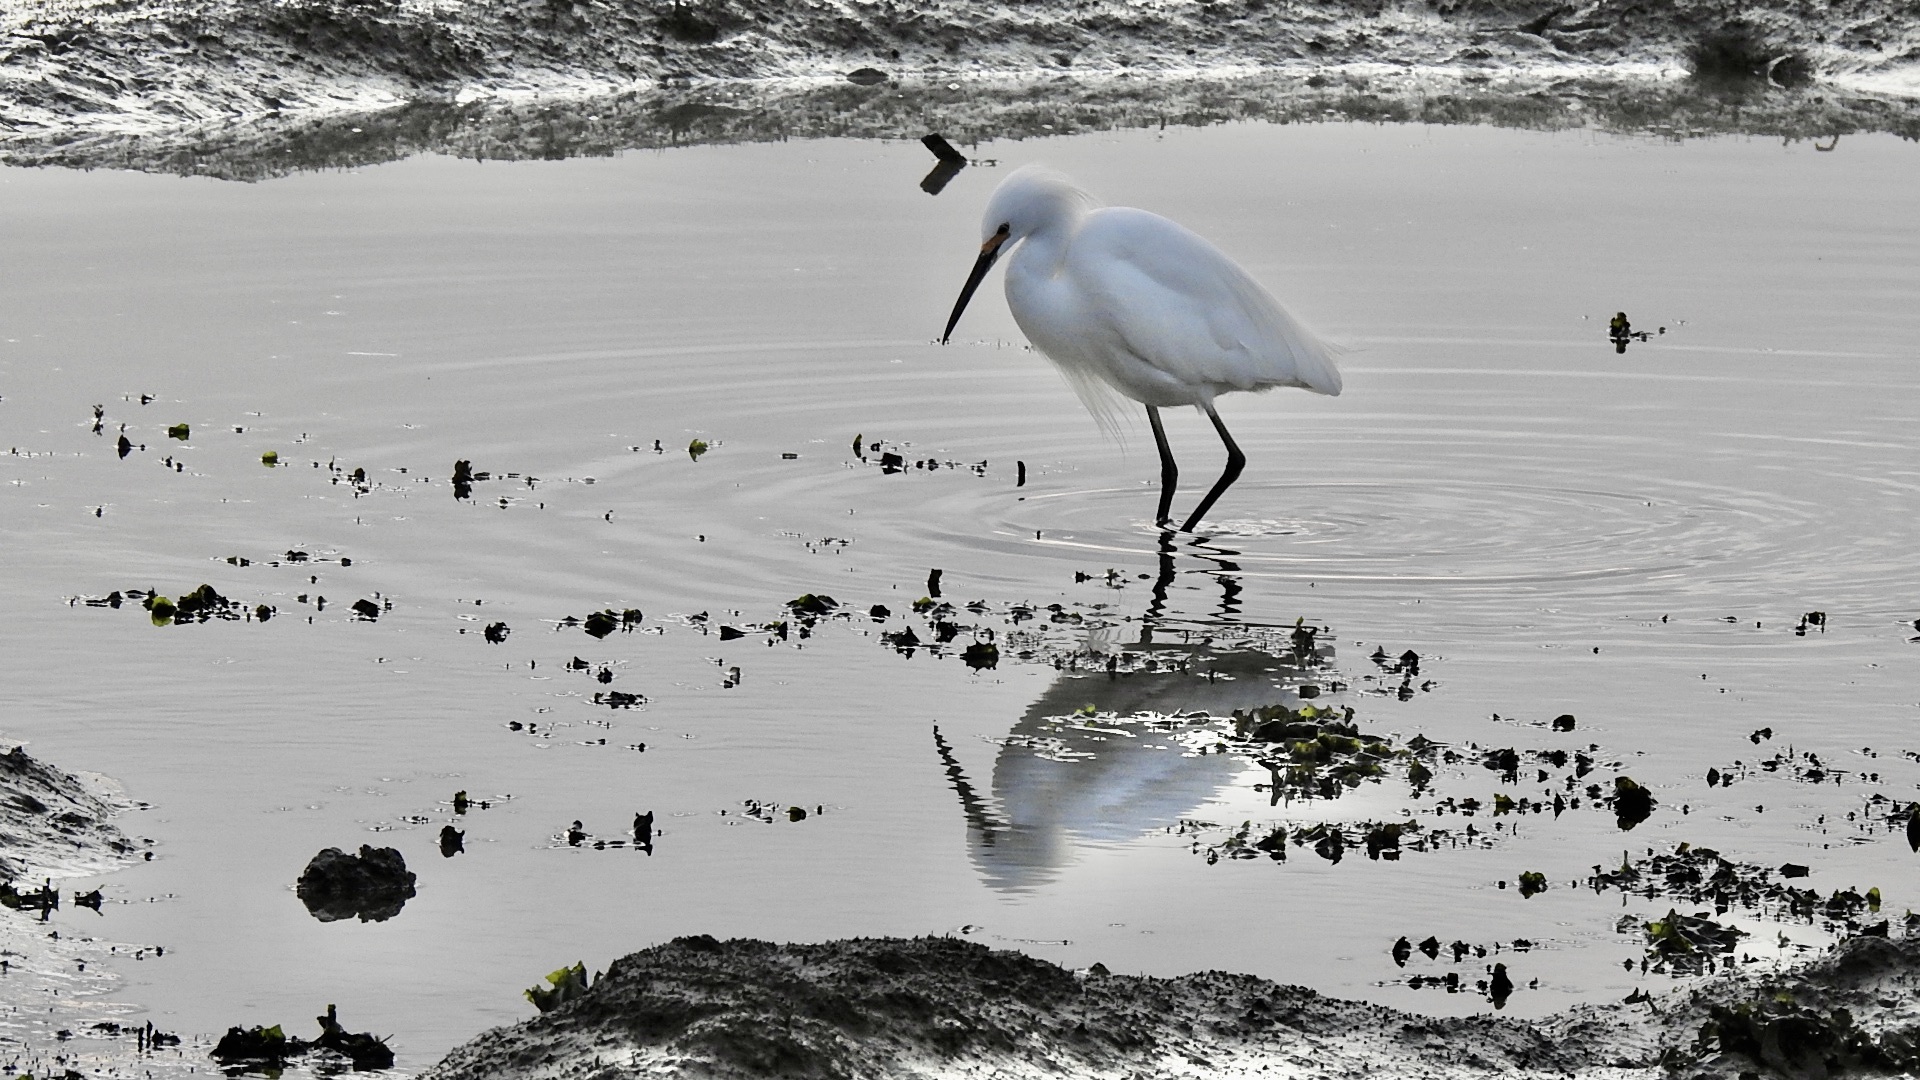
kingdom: Animalia
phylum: Chordata
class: Aves
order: Pelecaniformes
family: Ardeidae
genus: Egretta
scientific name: Egretta thula
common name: Snowy egret
